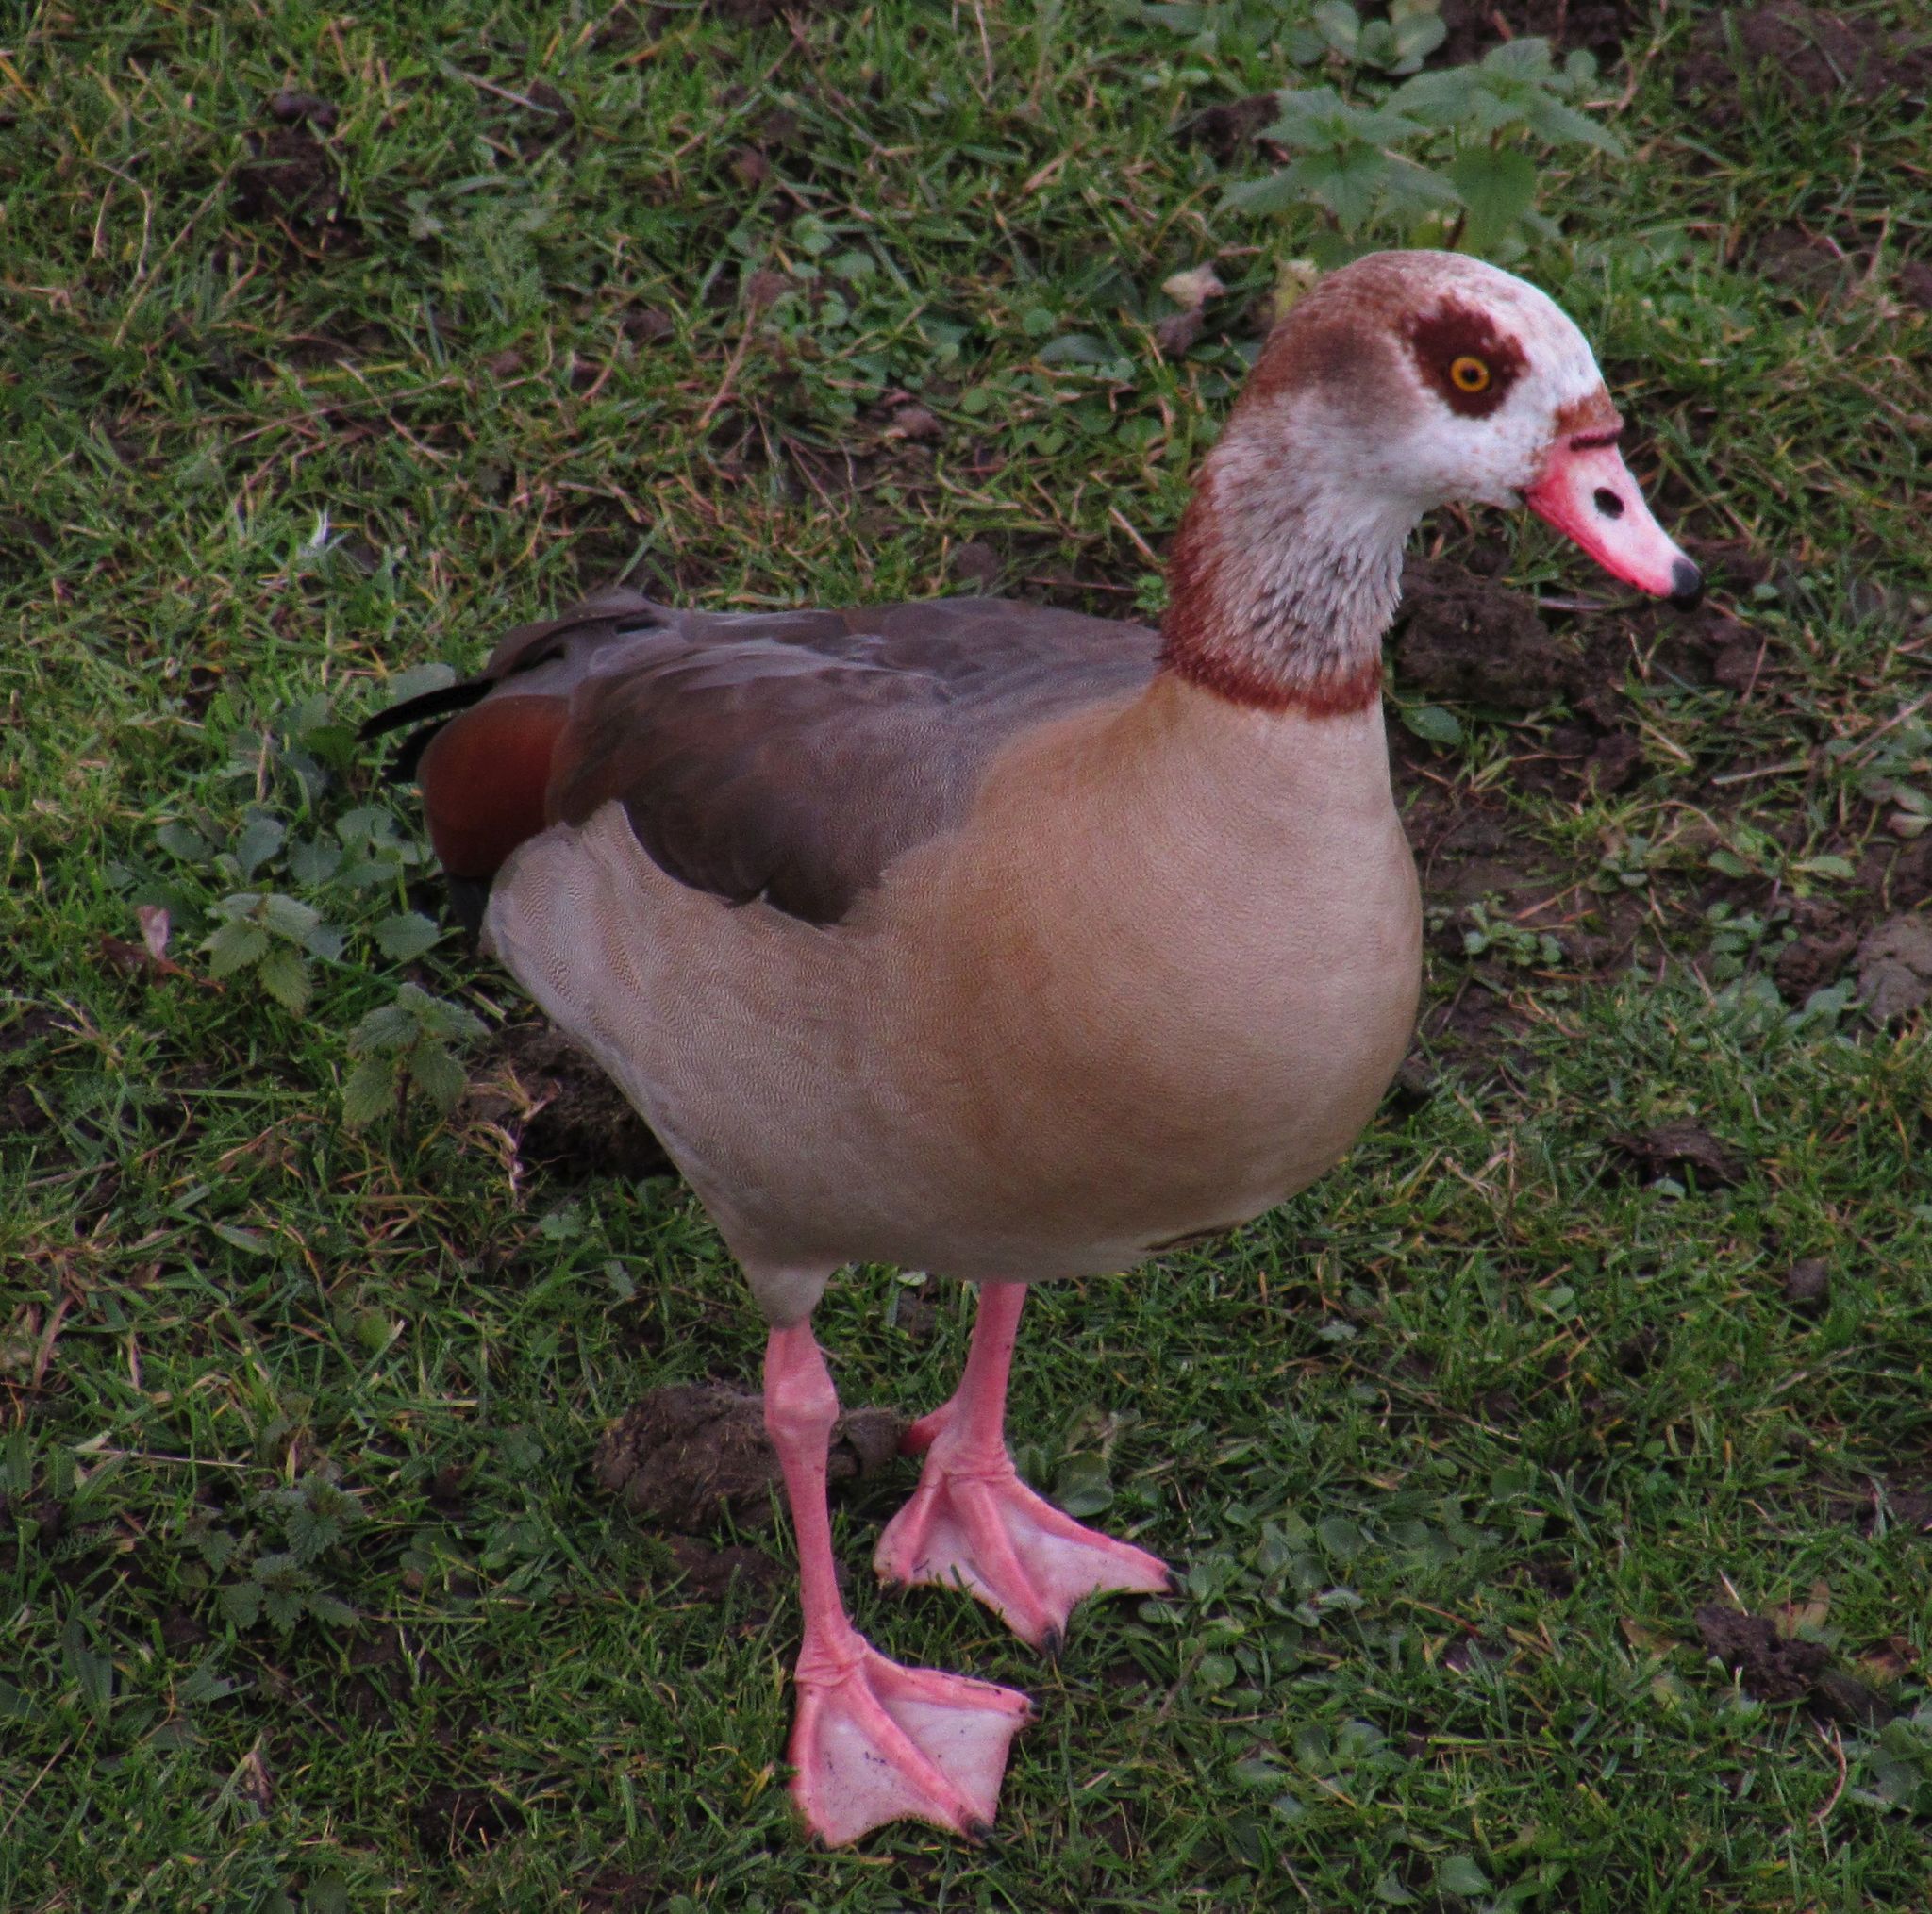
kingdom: Animalia
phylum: Chordata
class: Aves
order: Anseriformes
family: Anatidae
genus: Alopochen
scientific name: Alopochen aegyptiaca
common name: Egyptian goose
